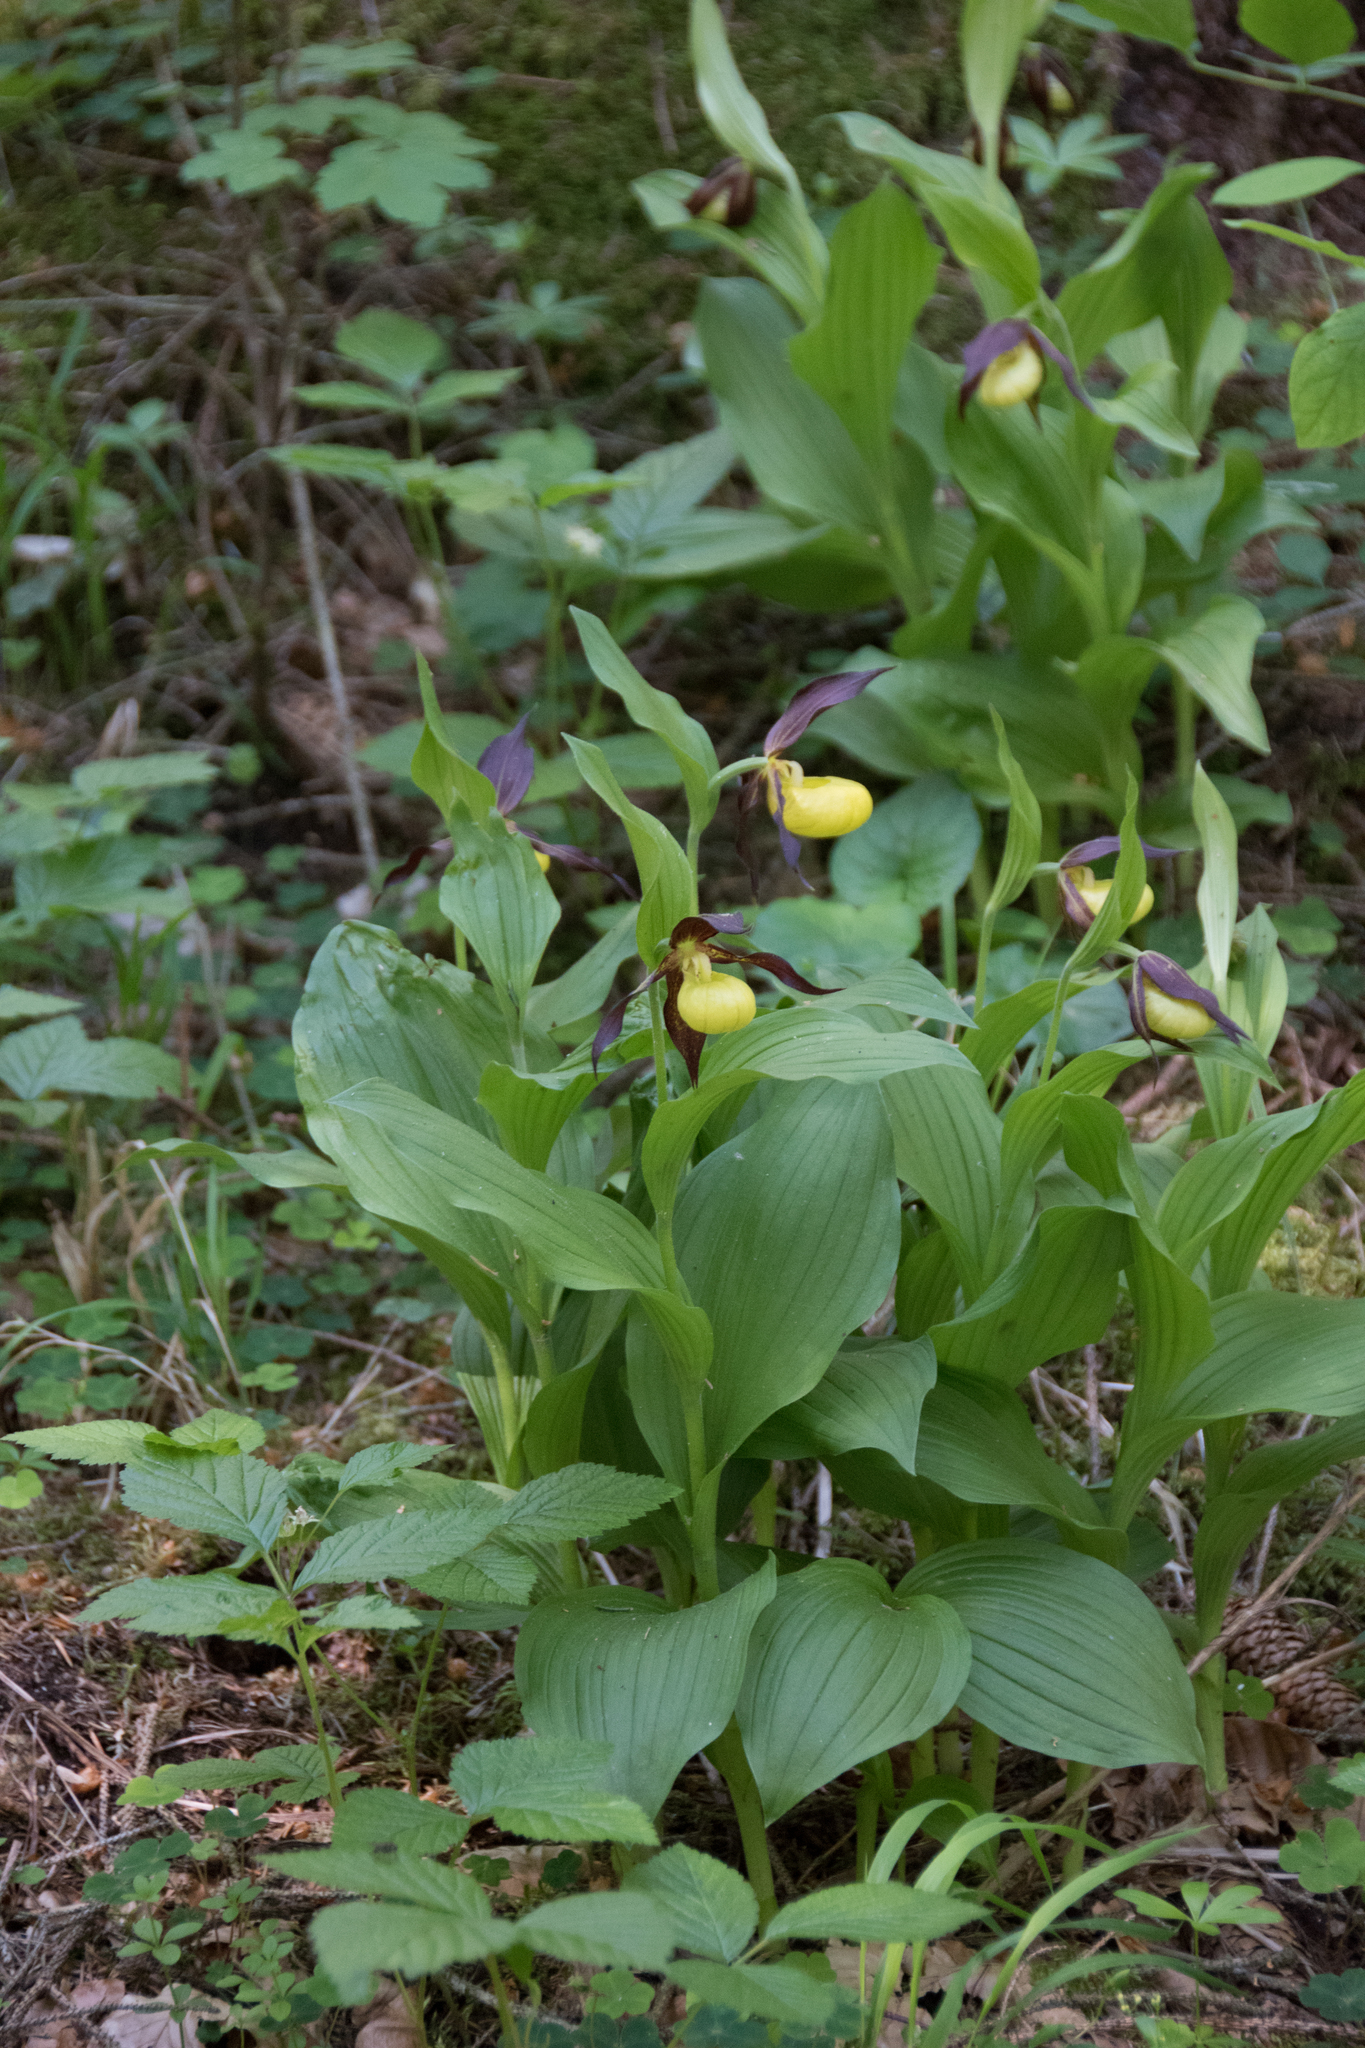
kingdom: Plantae
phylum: Tracheophyta
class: Liliopsida
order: Asparagales
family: Orchidaceae
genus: Cypripedium
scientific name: Cypripedium calceolus
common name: Lady's-slipper
